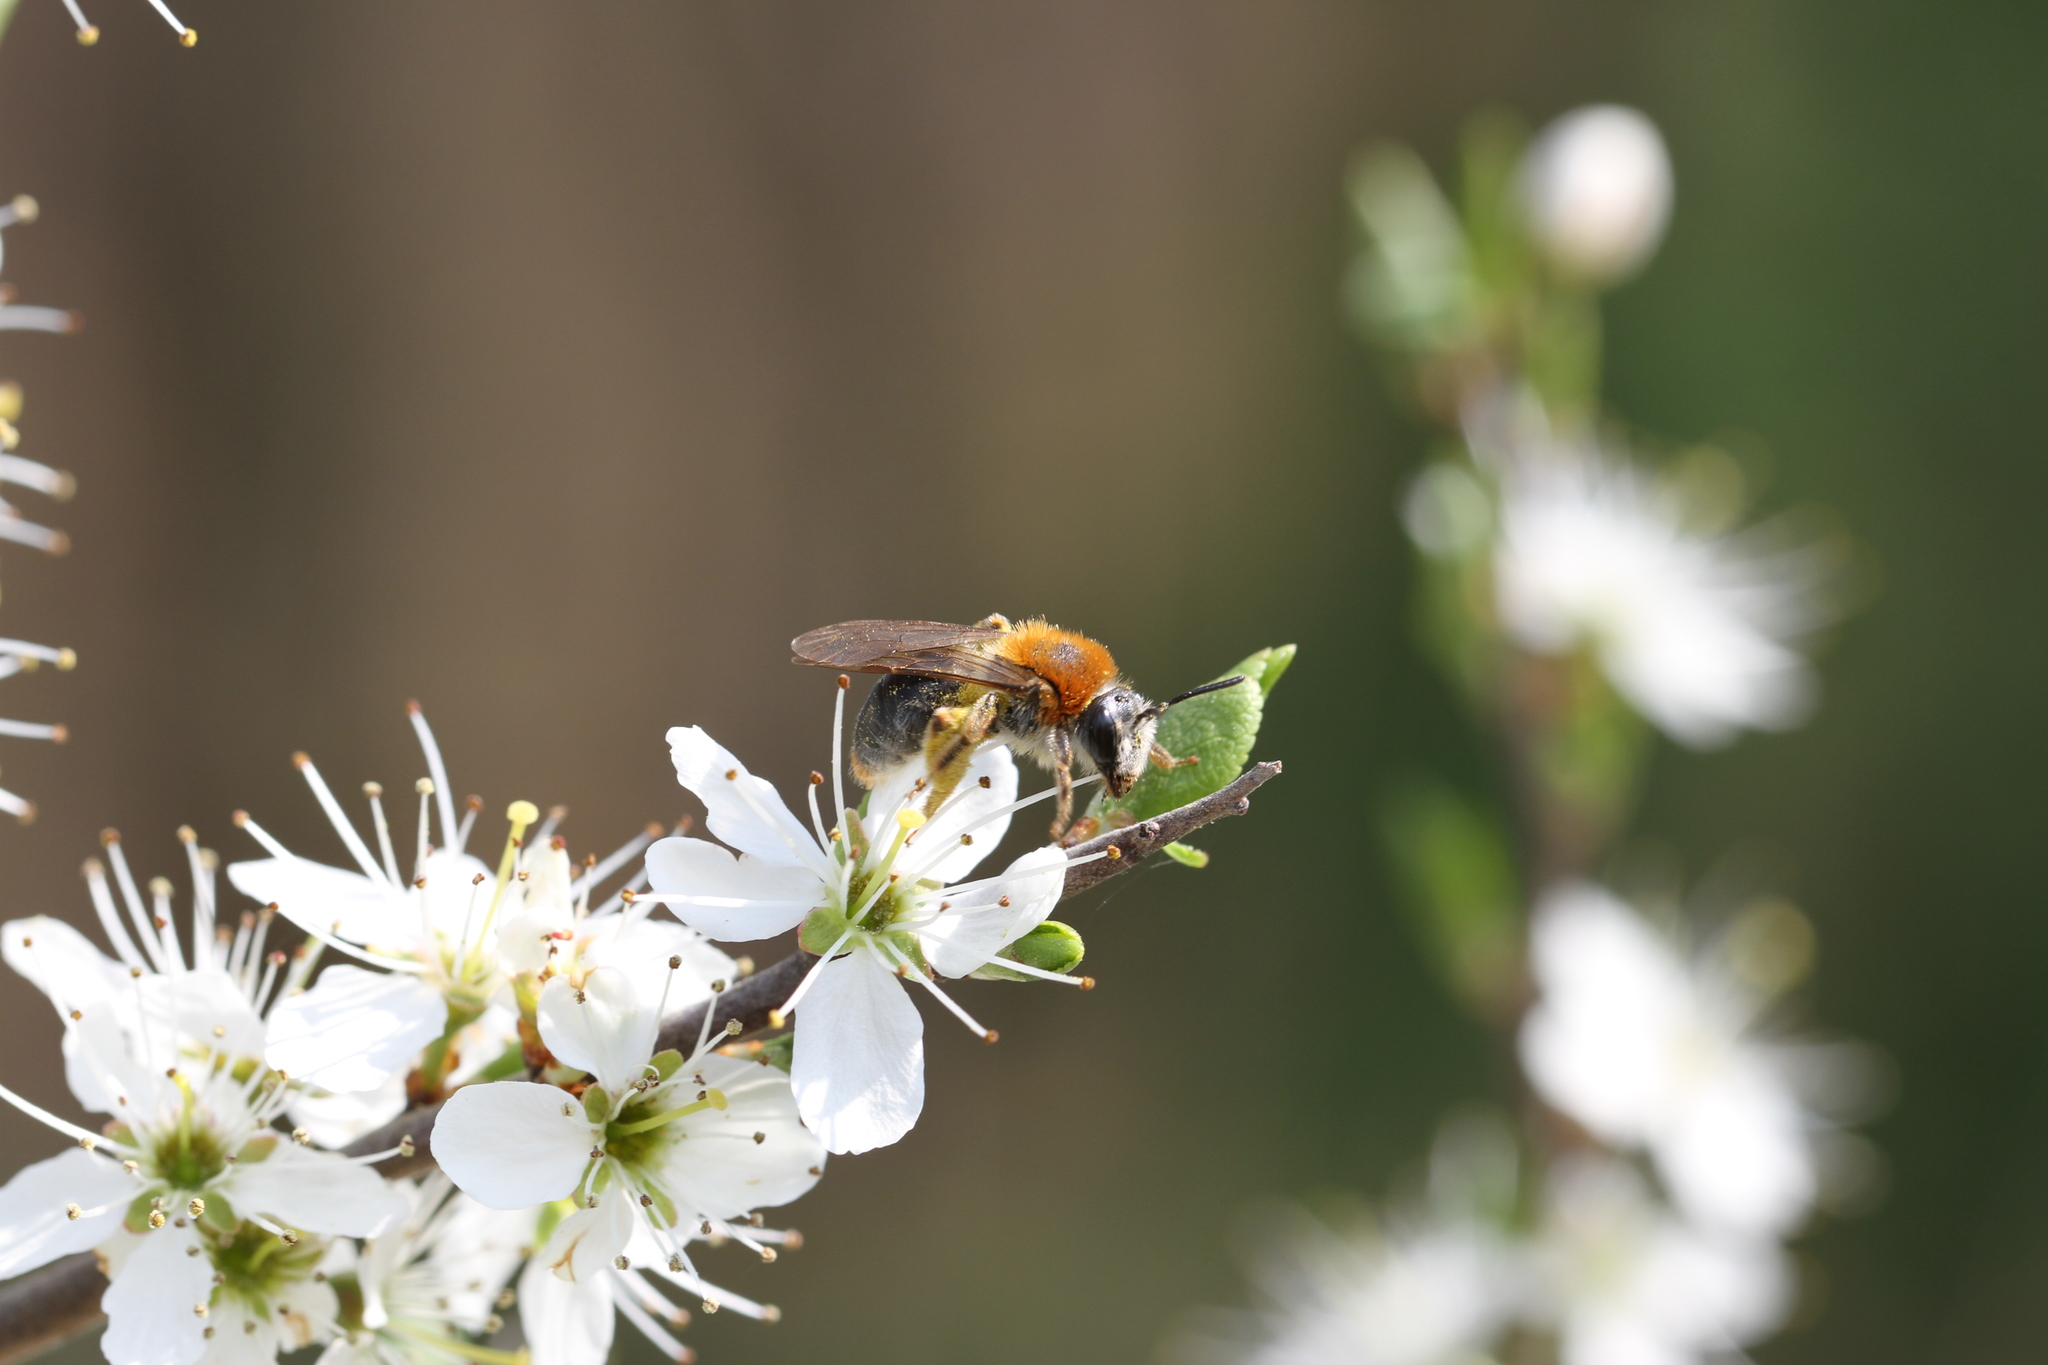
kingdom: Animalia
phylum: Arthropoda
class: Insecta
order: Hymenoptera
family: Andrenidae
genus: Andrena
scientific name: Andrena haemorrhoa
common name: Early mining bee
